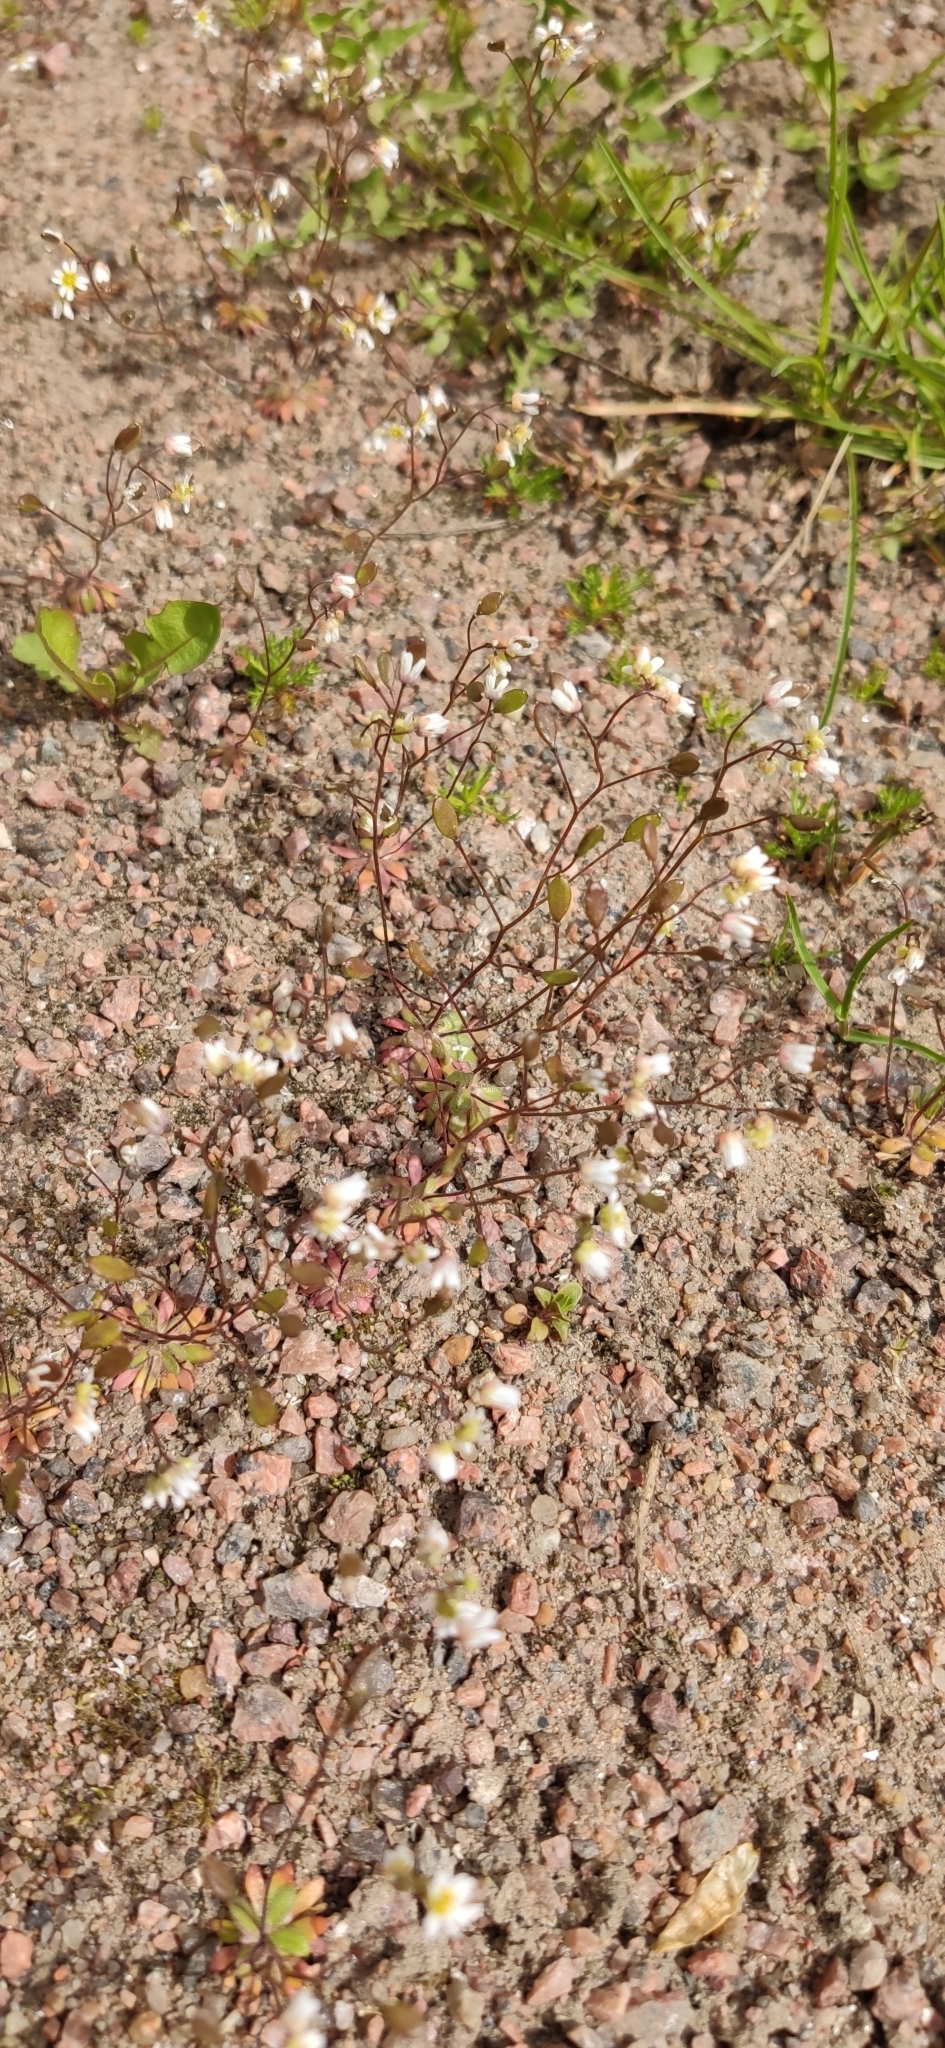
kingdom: Plantae
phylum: Tracheophyta
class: Magnoliopsida
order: Brassicales
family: Brassicaceae
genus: Draba
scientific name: Draba verna
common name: Spring draba
